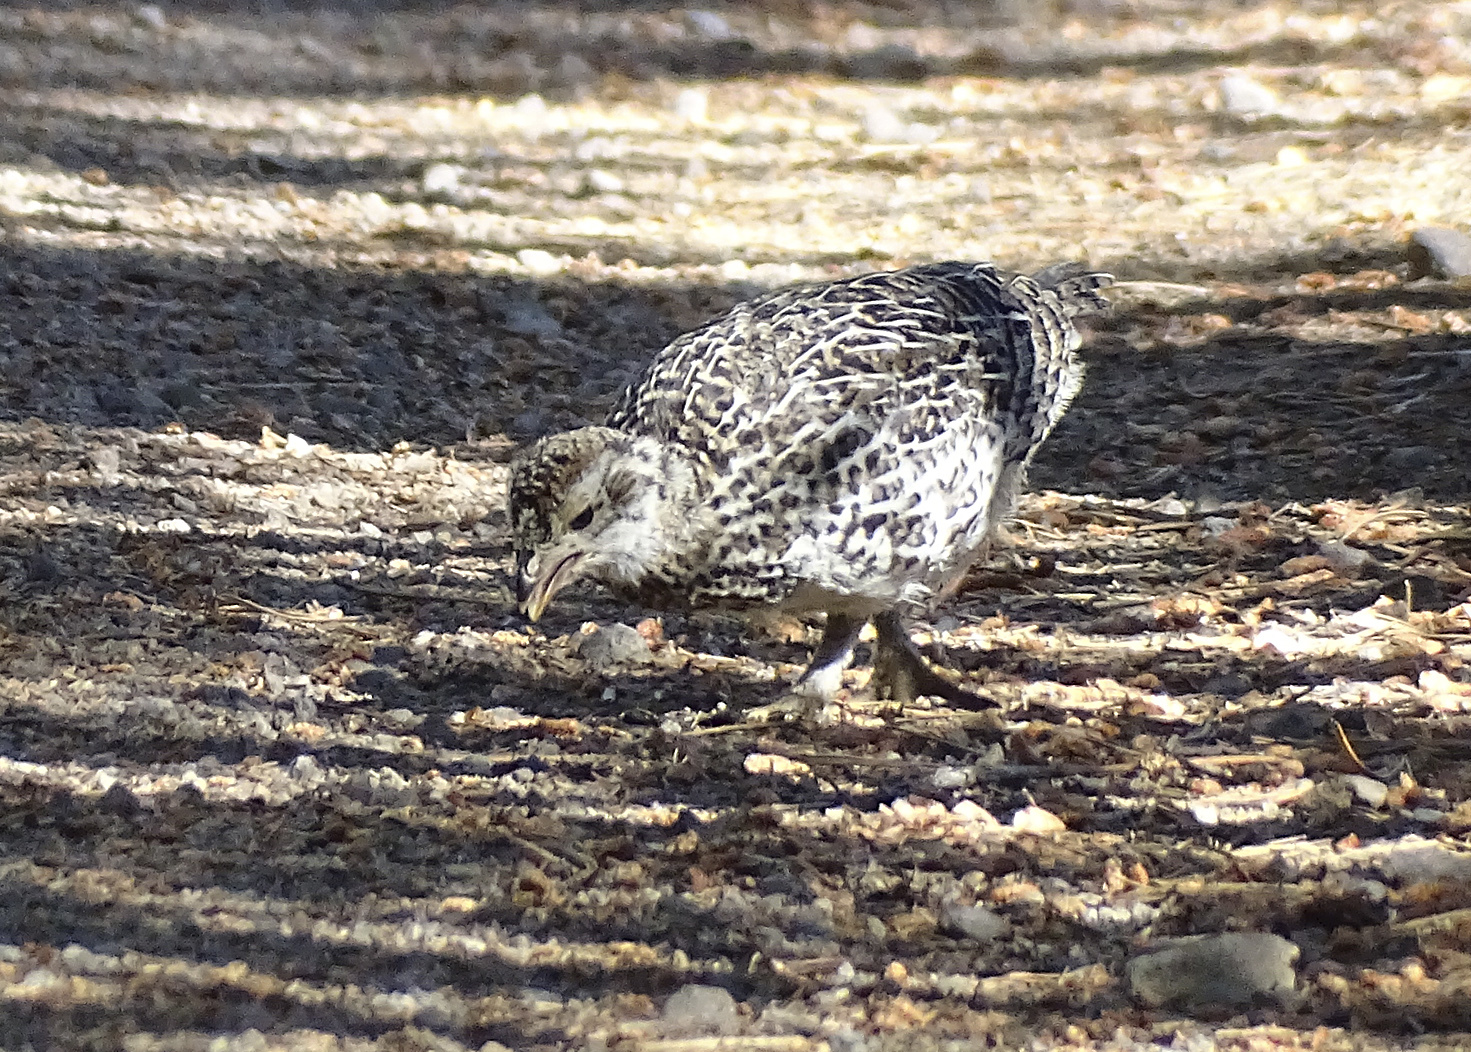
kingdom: Animalia
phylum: Chordata
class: Aves
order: Galliformes
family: Phasianidae
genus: Dendragapus
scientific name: Dendragapus fuliginosus
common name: Sooty grouse
